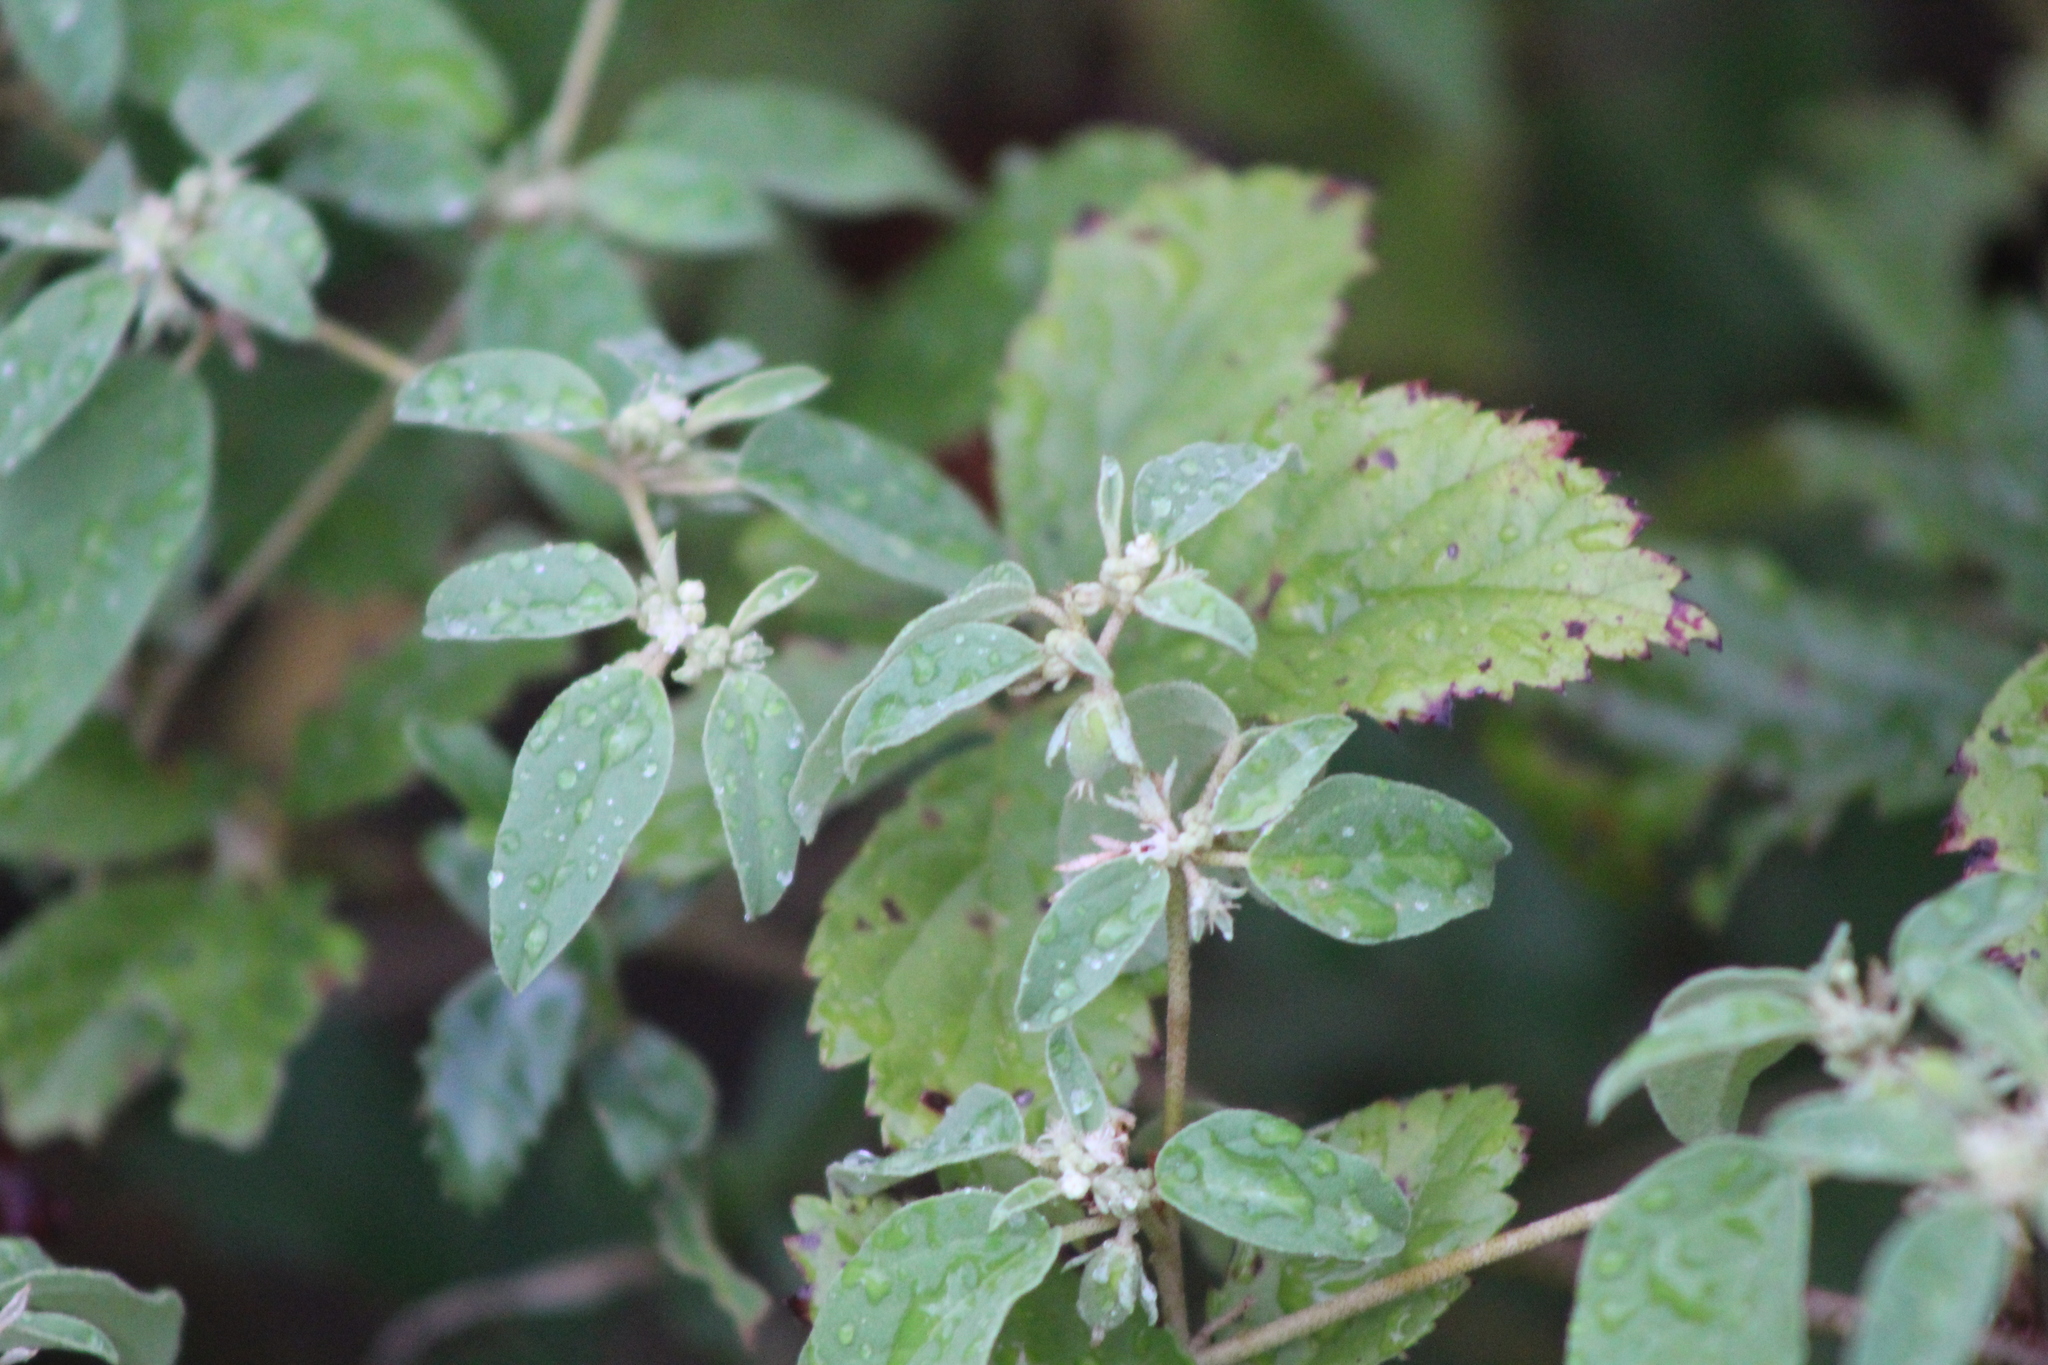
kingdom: Plantae
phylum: Tracheophyta
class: Magnoliopsida
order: Malpighiales
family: Euphorbiaceae
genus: Croton
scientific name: Croton monanthogynus
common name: One-seed croton
